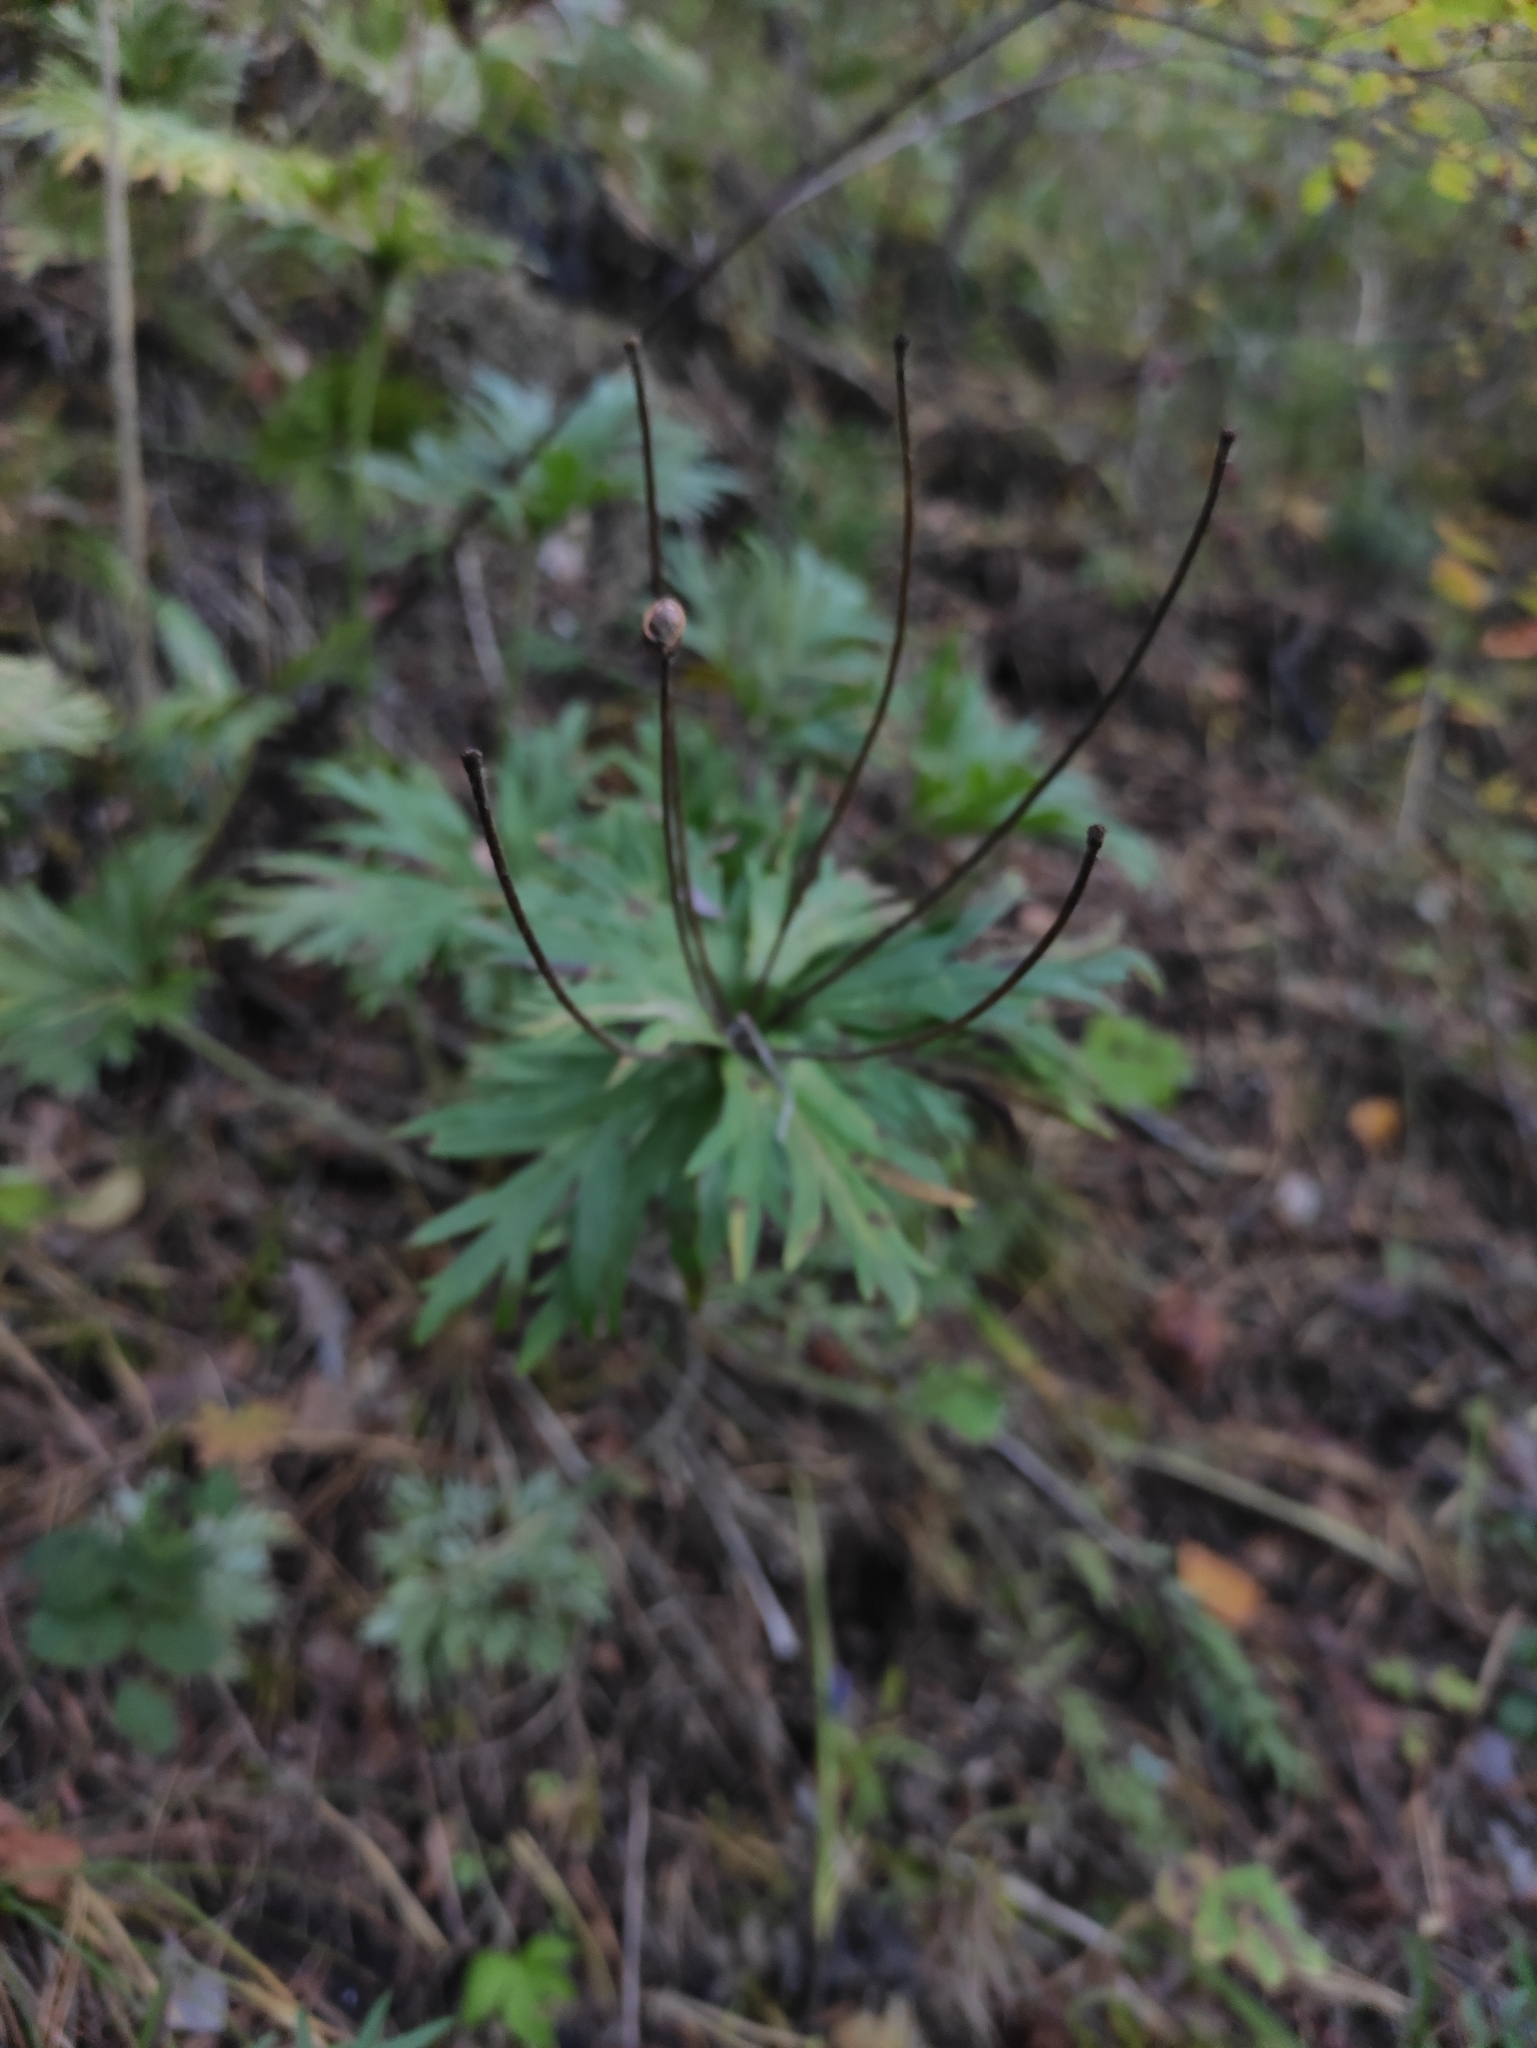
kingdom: Plantae
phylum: Tracheophyta
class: Magnoliopsida
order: Ranunculales
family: Ranunculaceae
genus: Anemonastrum
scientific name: Anemonastrum narcissiflorum
